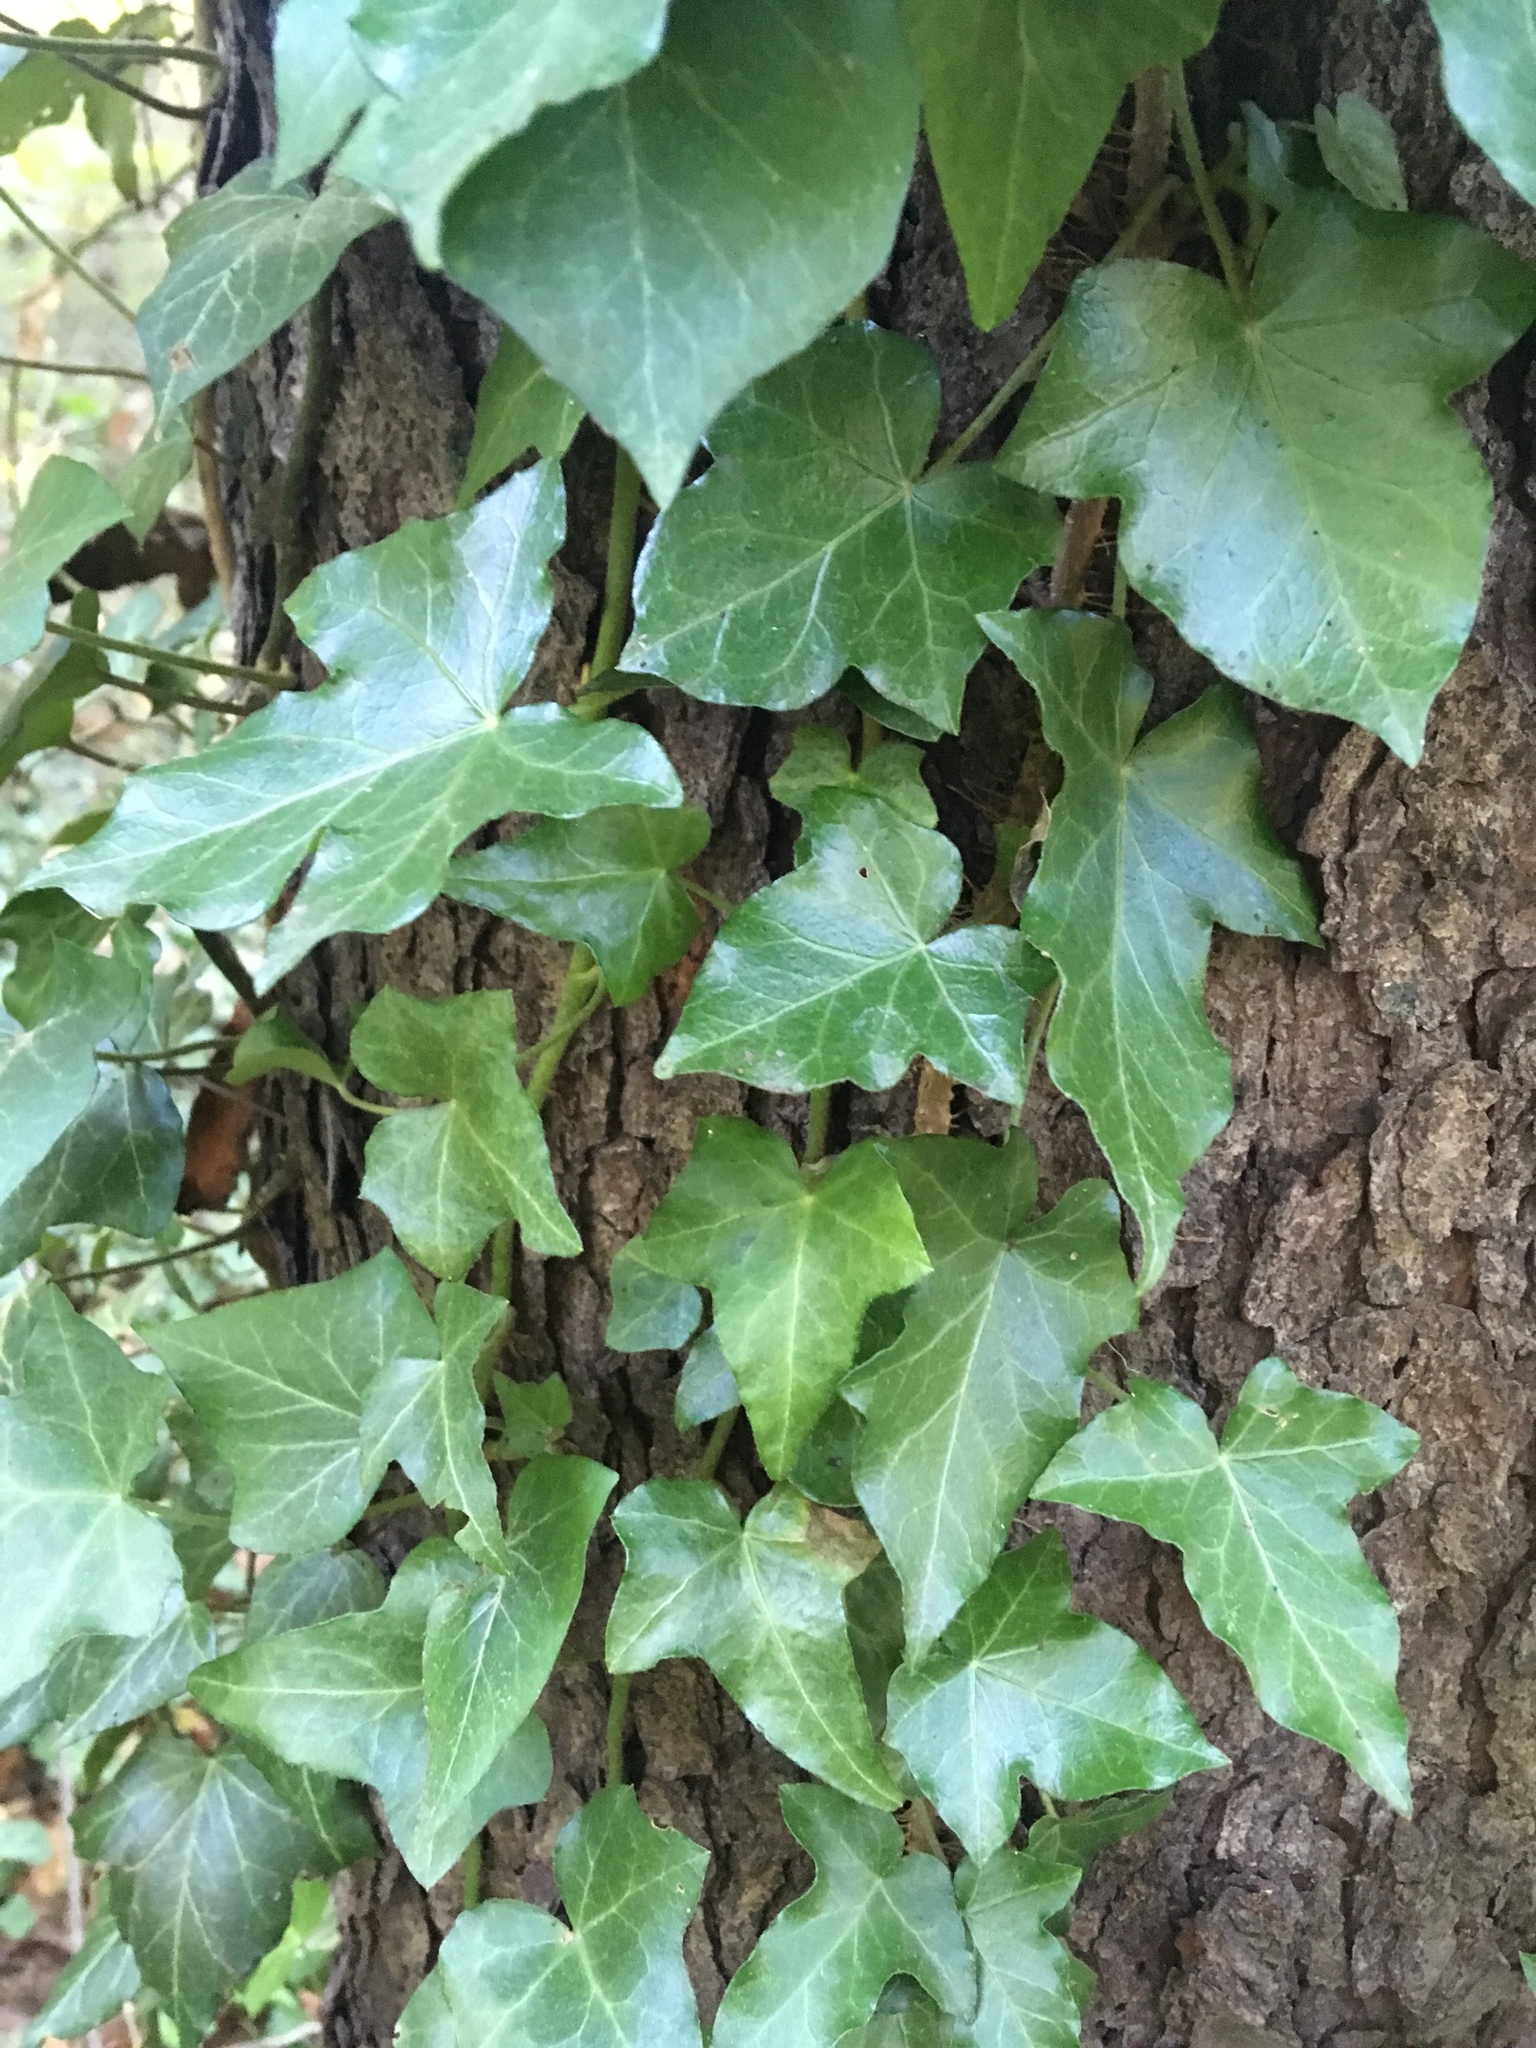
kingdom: Plantae
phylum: Tracheophyta
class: Magnoliopsida
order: Apiales
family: Araliaceae
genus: Hedera
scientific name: Hedera helix
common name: Ivy
